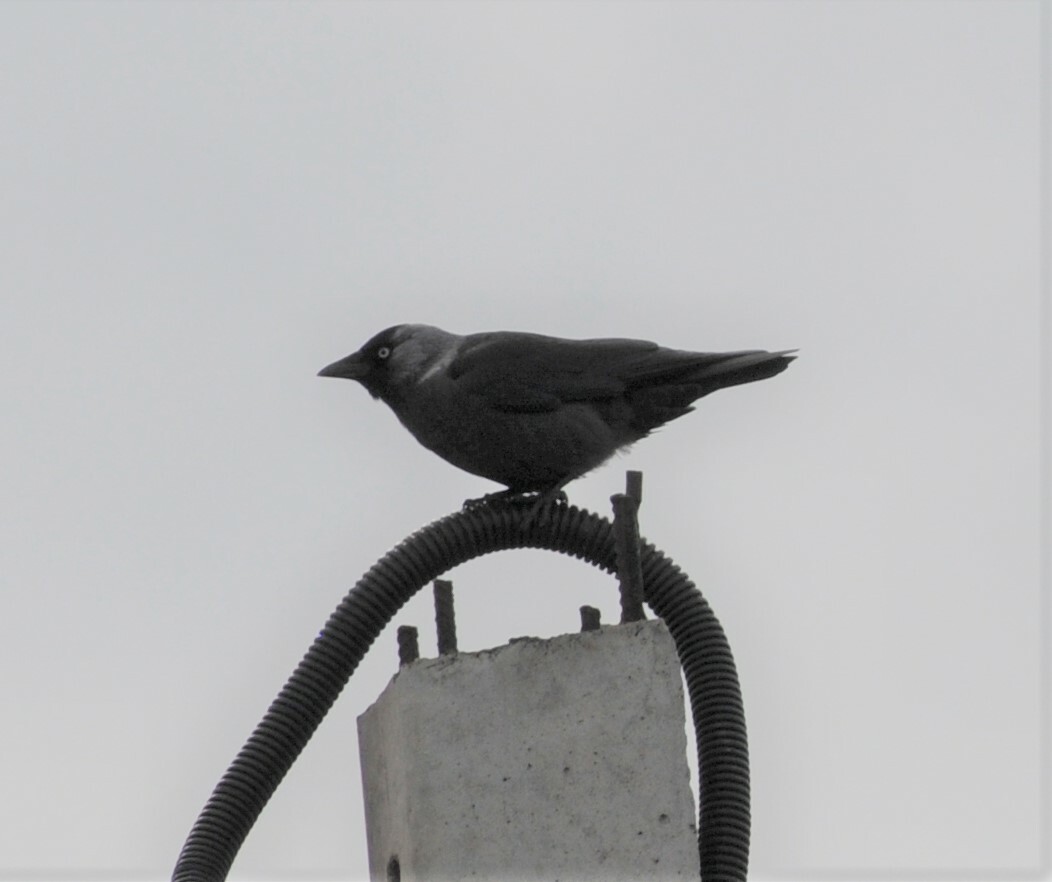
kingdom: Animalia
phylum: Chordata
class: Aves
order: Passeriformes
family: Corvidae
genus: Coloeus
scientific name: Coloeus monedula
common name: Western jackdaw
